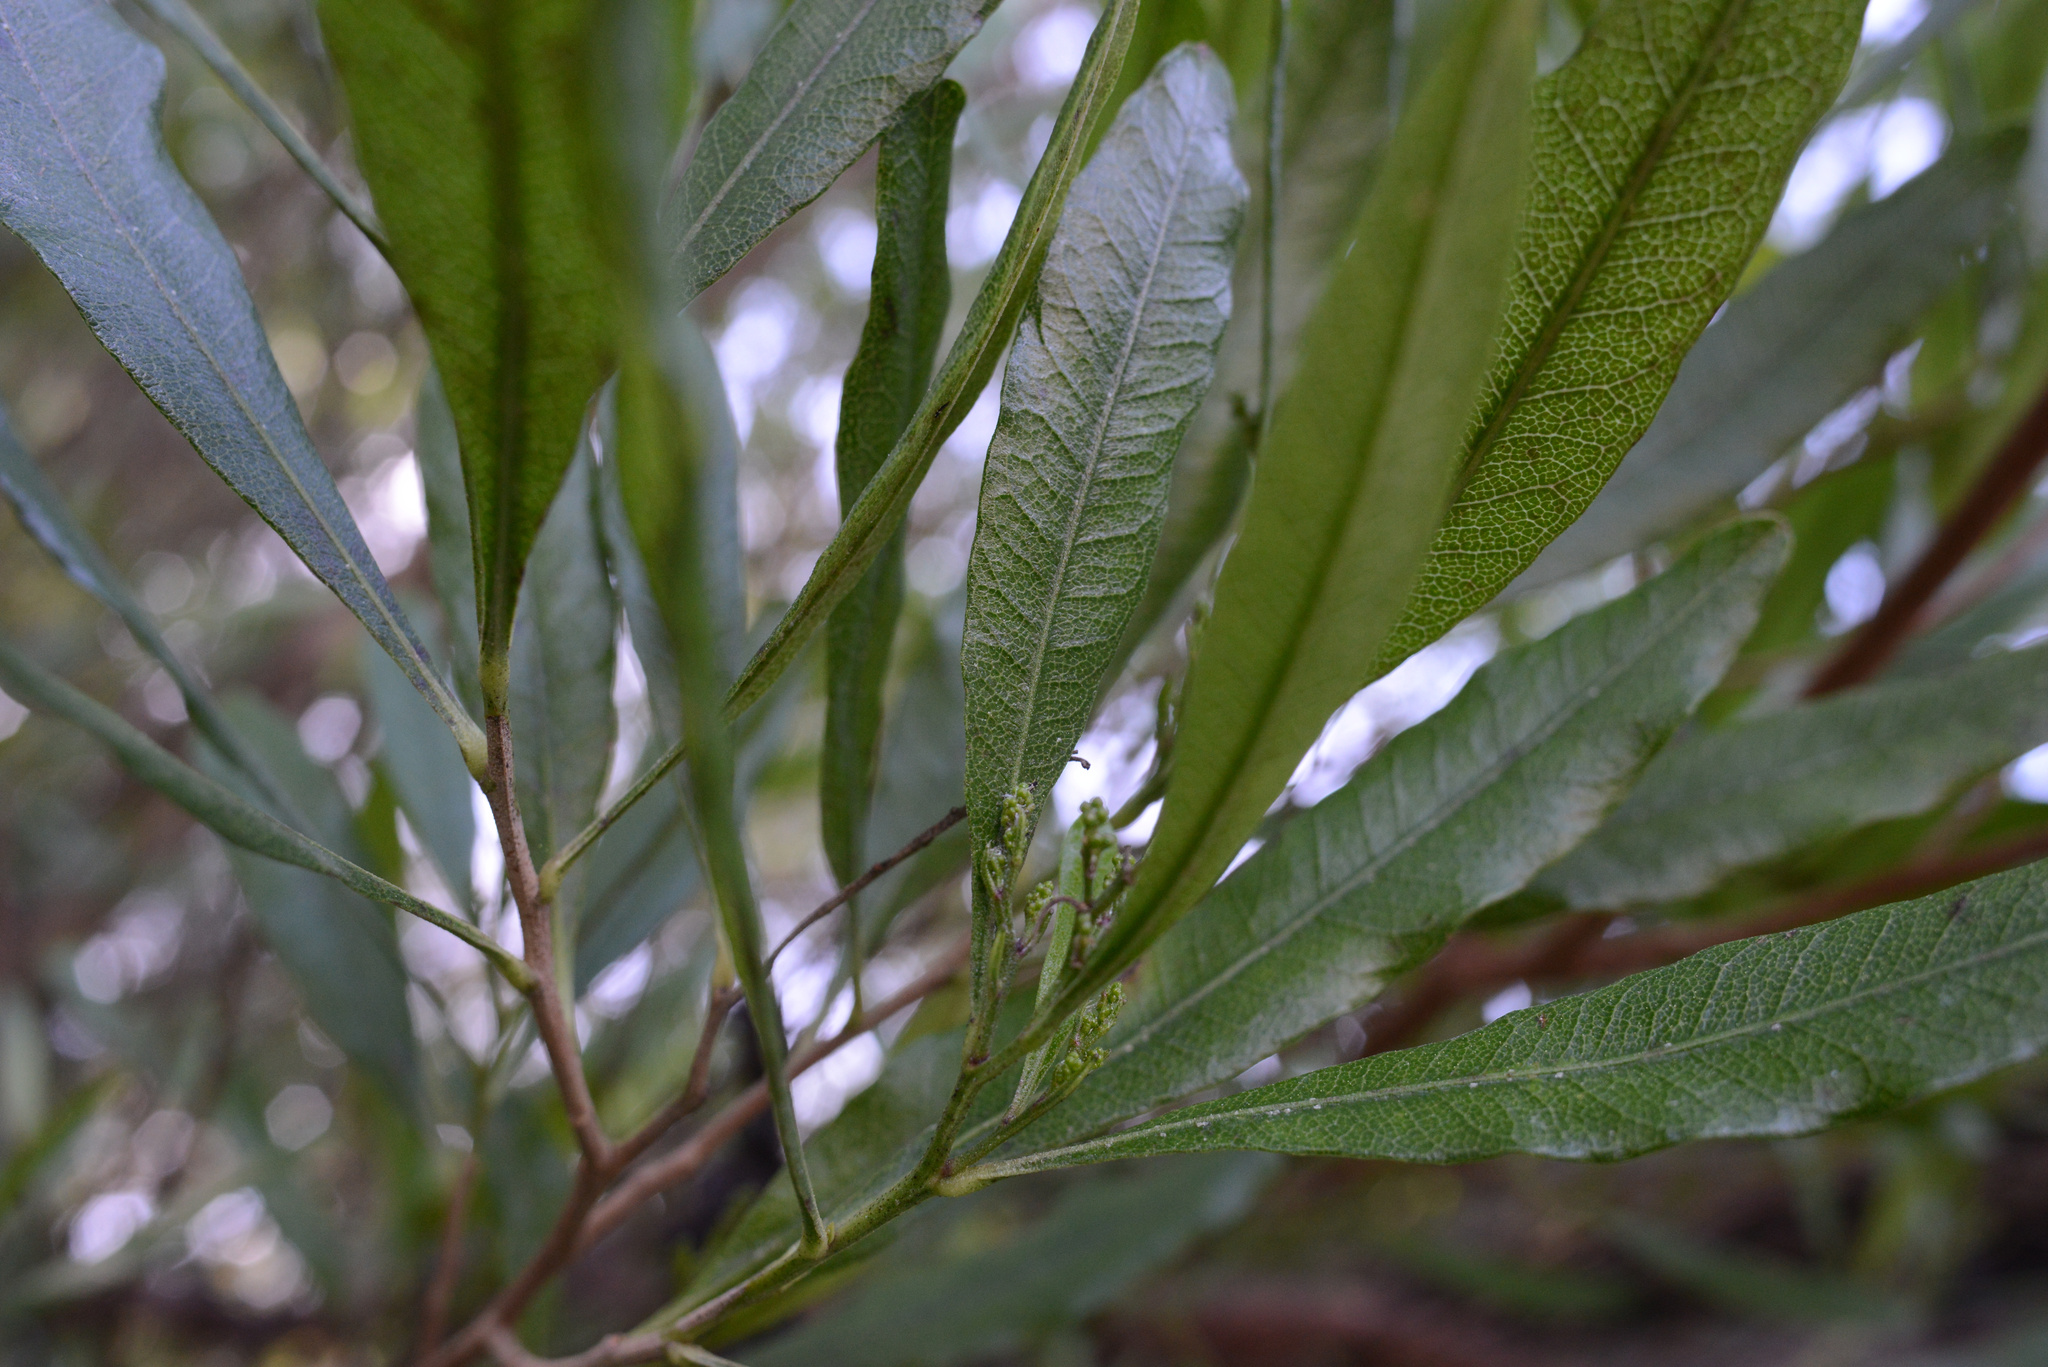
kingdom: Plantae
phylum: Tracheophyta
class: Magnoliopsida
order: Sapindales
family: Sapindaceae
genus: Dodonaea
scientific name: Dodonaea viscosa
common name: Hopbush
